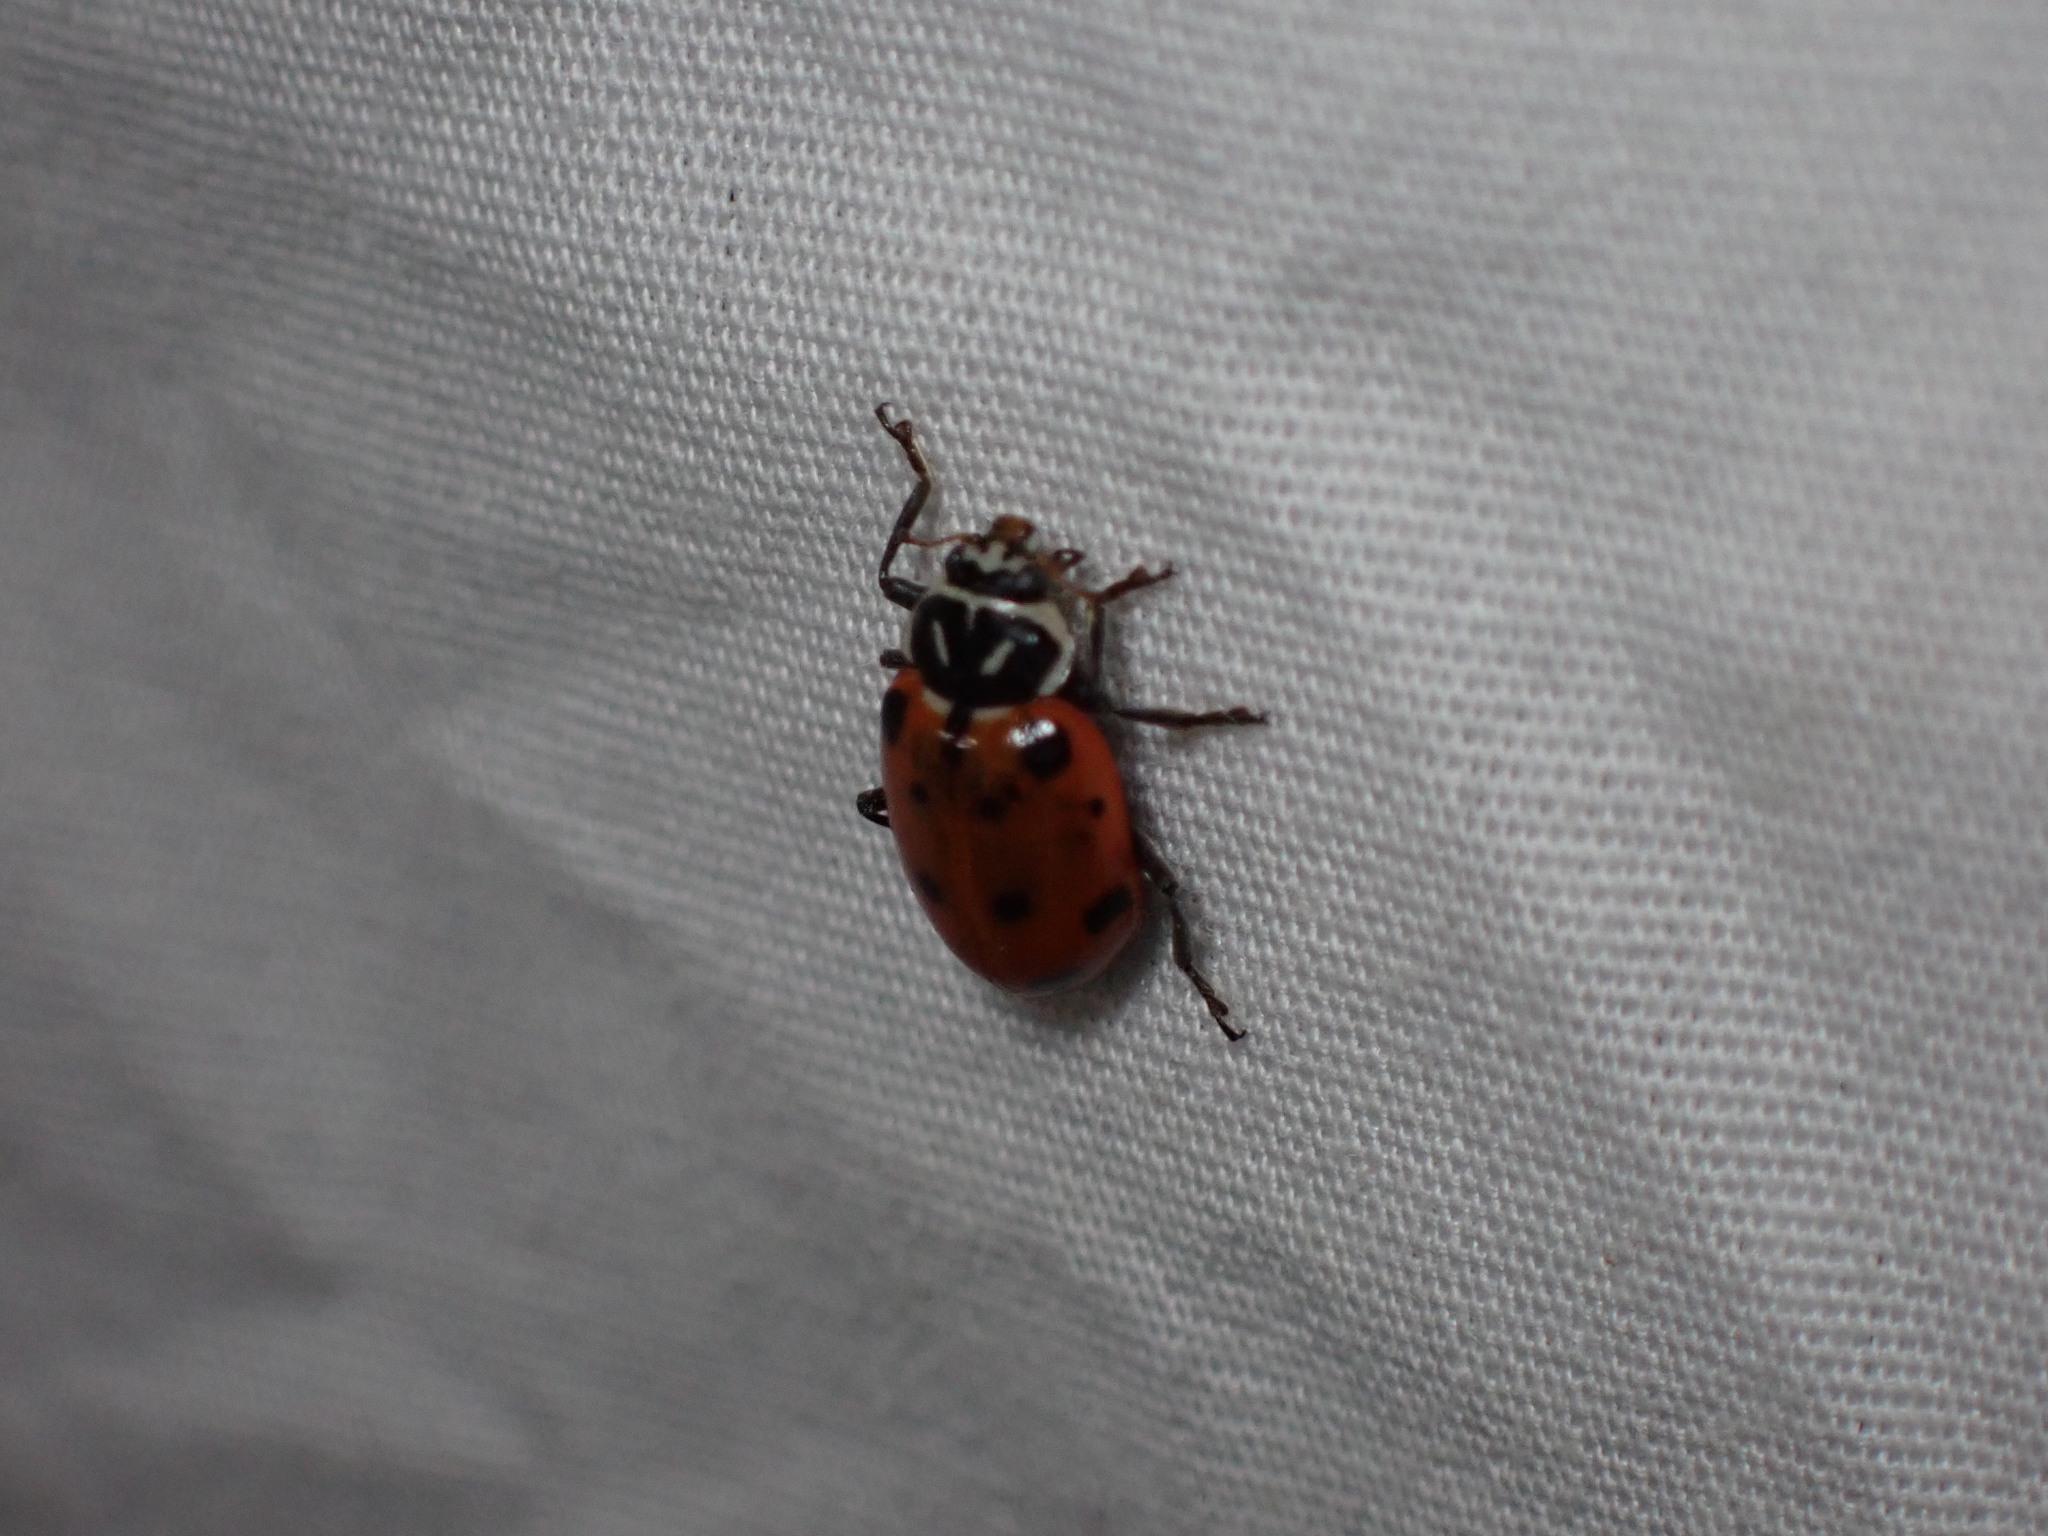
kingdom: Animalia
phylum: Arthropoda
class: Insecta
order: Coleoptera
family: Coccinellidae
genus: Hippodamia
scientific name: Hippodamia convergens
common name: Convergent lady beetle
